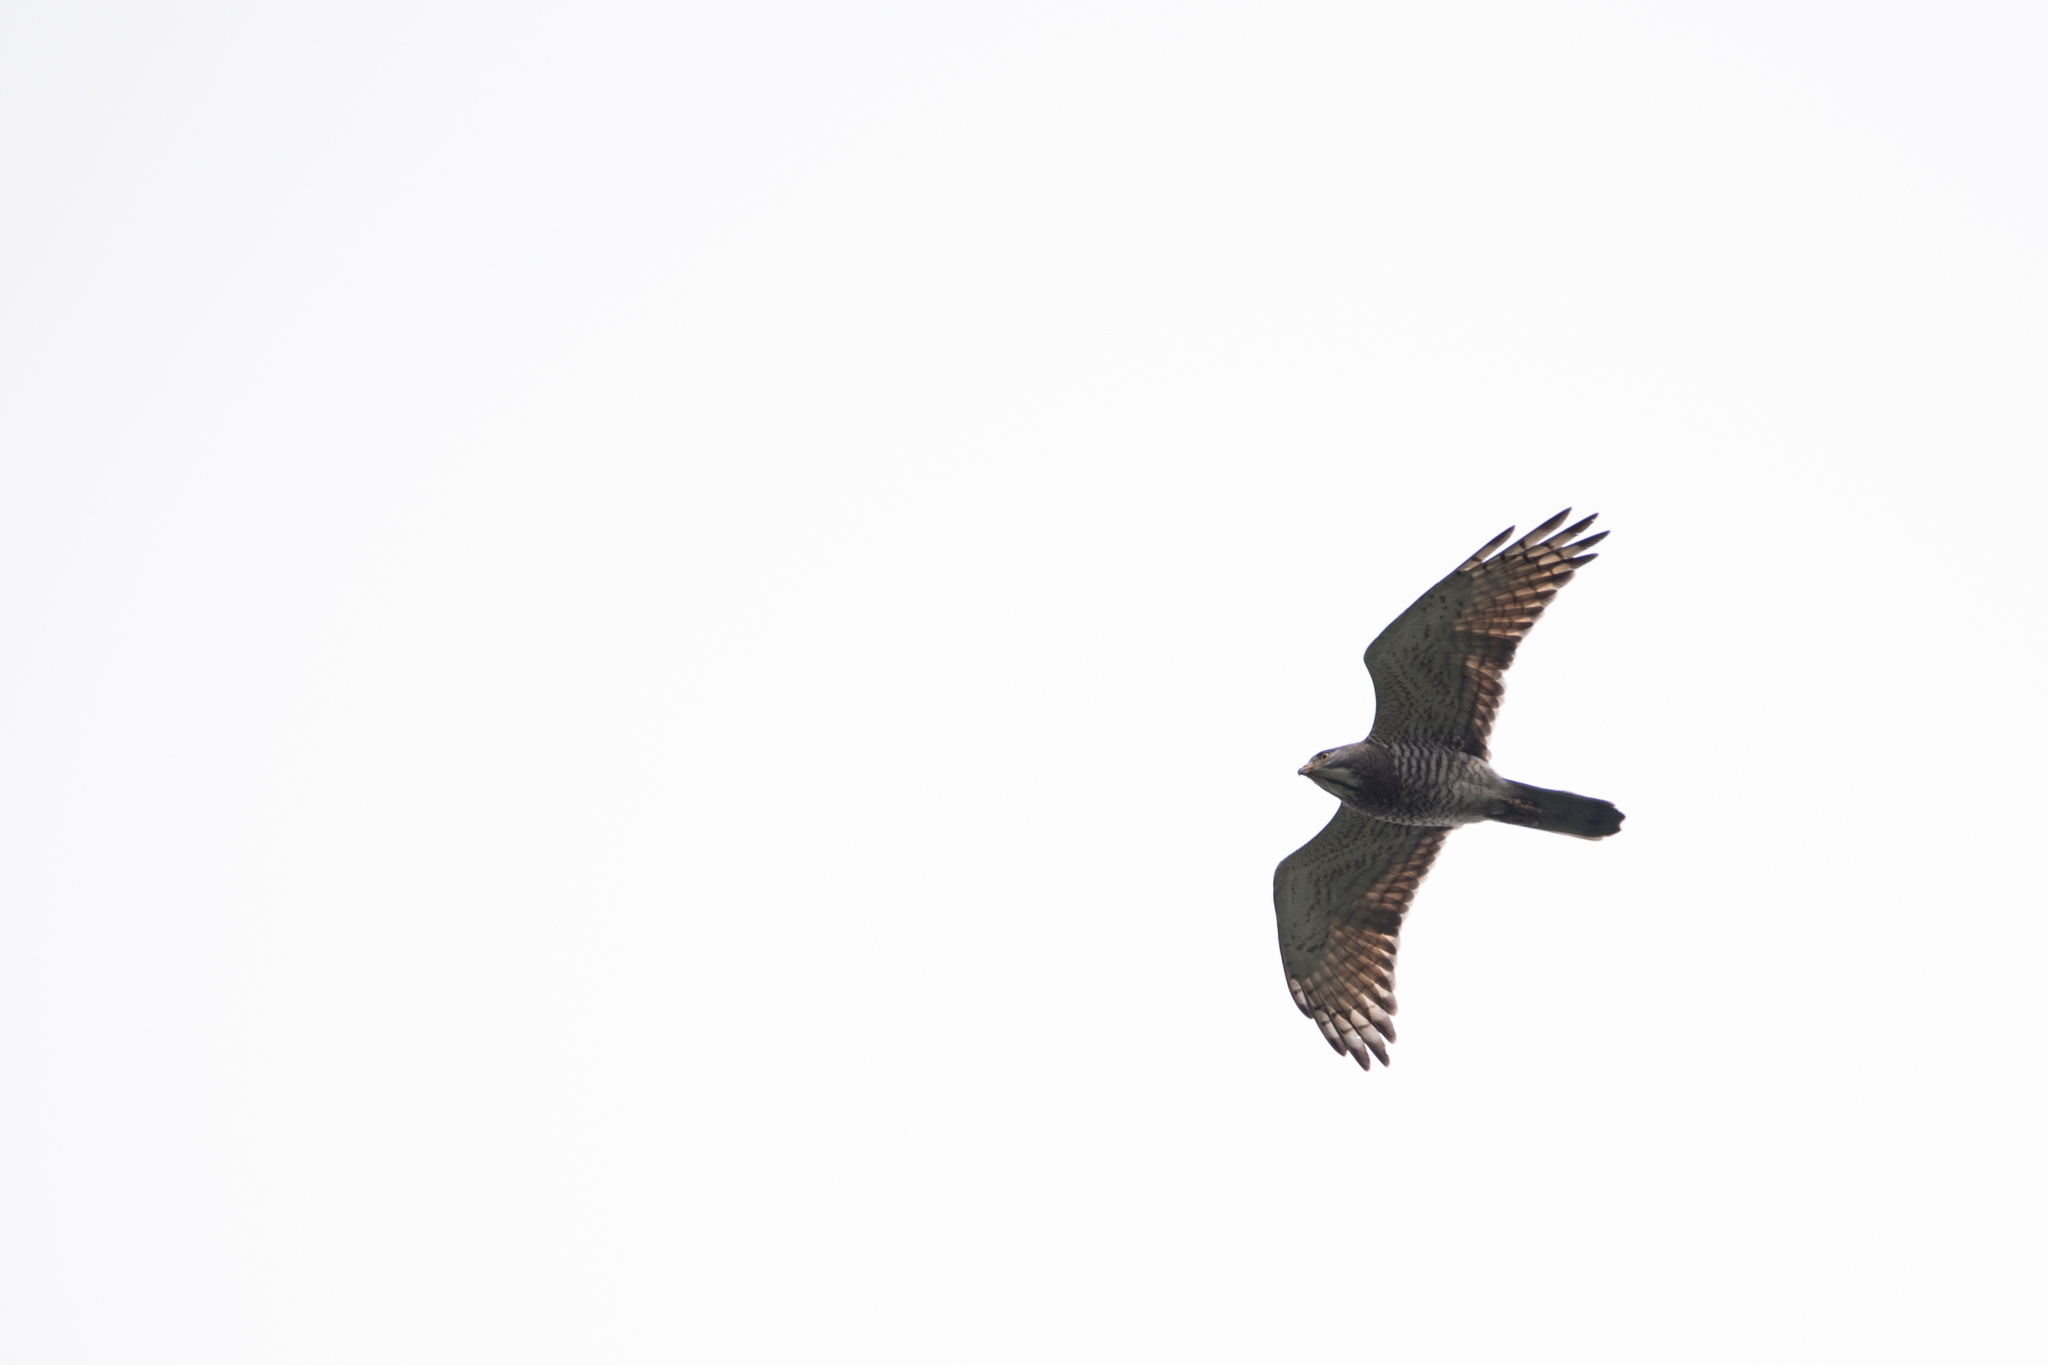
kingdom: Animalia
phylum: Chordata
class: Aves
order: Accipitriformes
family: Accipitridae
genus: Butastur
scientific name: Butastur indicus
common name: Grey-faced buzzard
